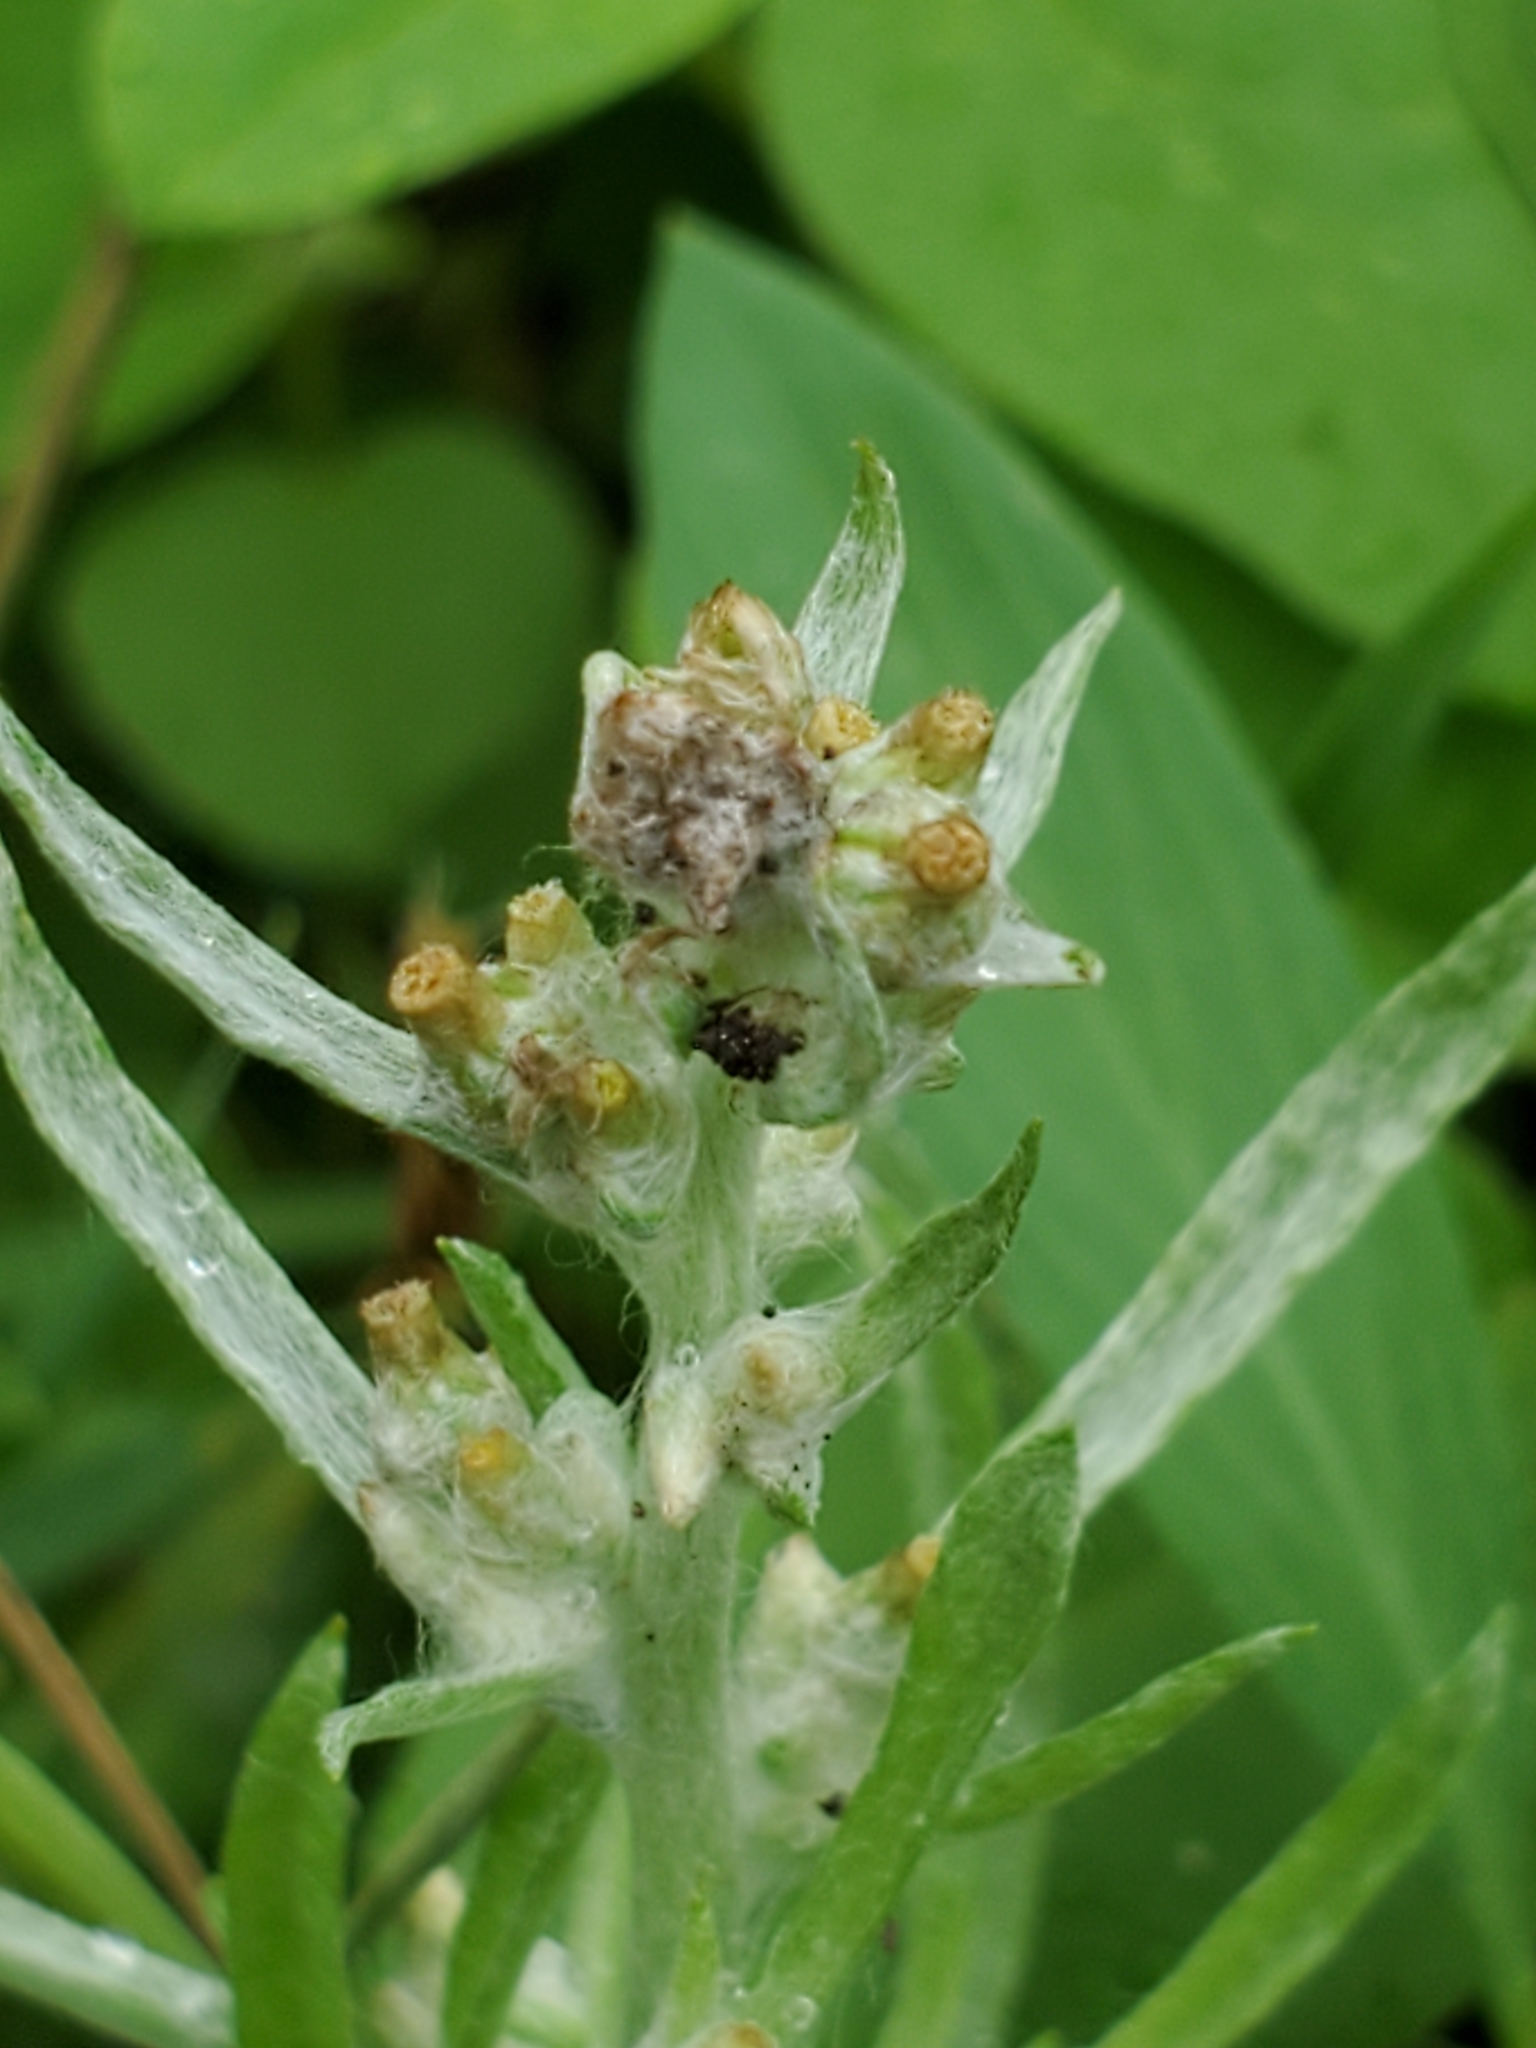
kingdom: Plantae
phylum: Tracheophyta
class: Magnoliopsida
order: Asterales
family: Asteraceae
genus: Gamochaeta
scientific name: Gamochaeta pensylvanica
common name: Pennsylvania everlasting
